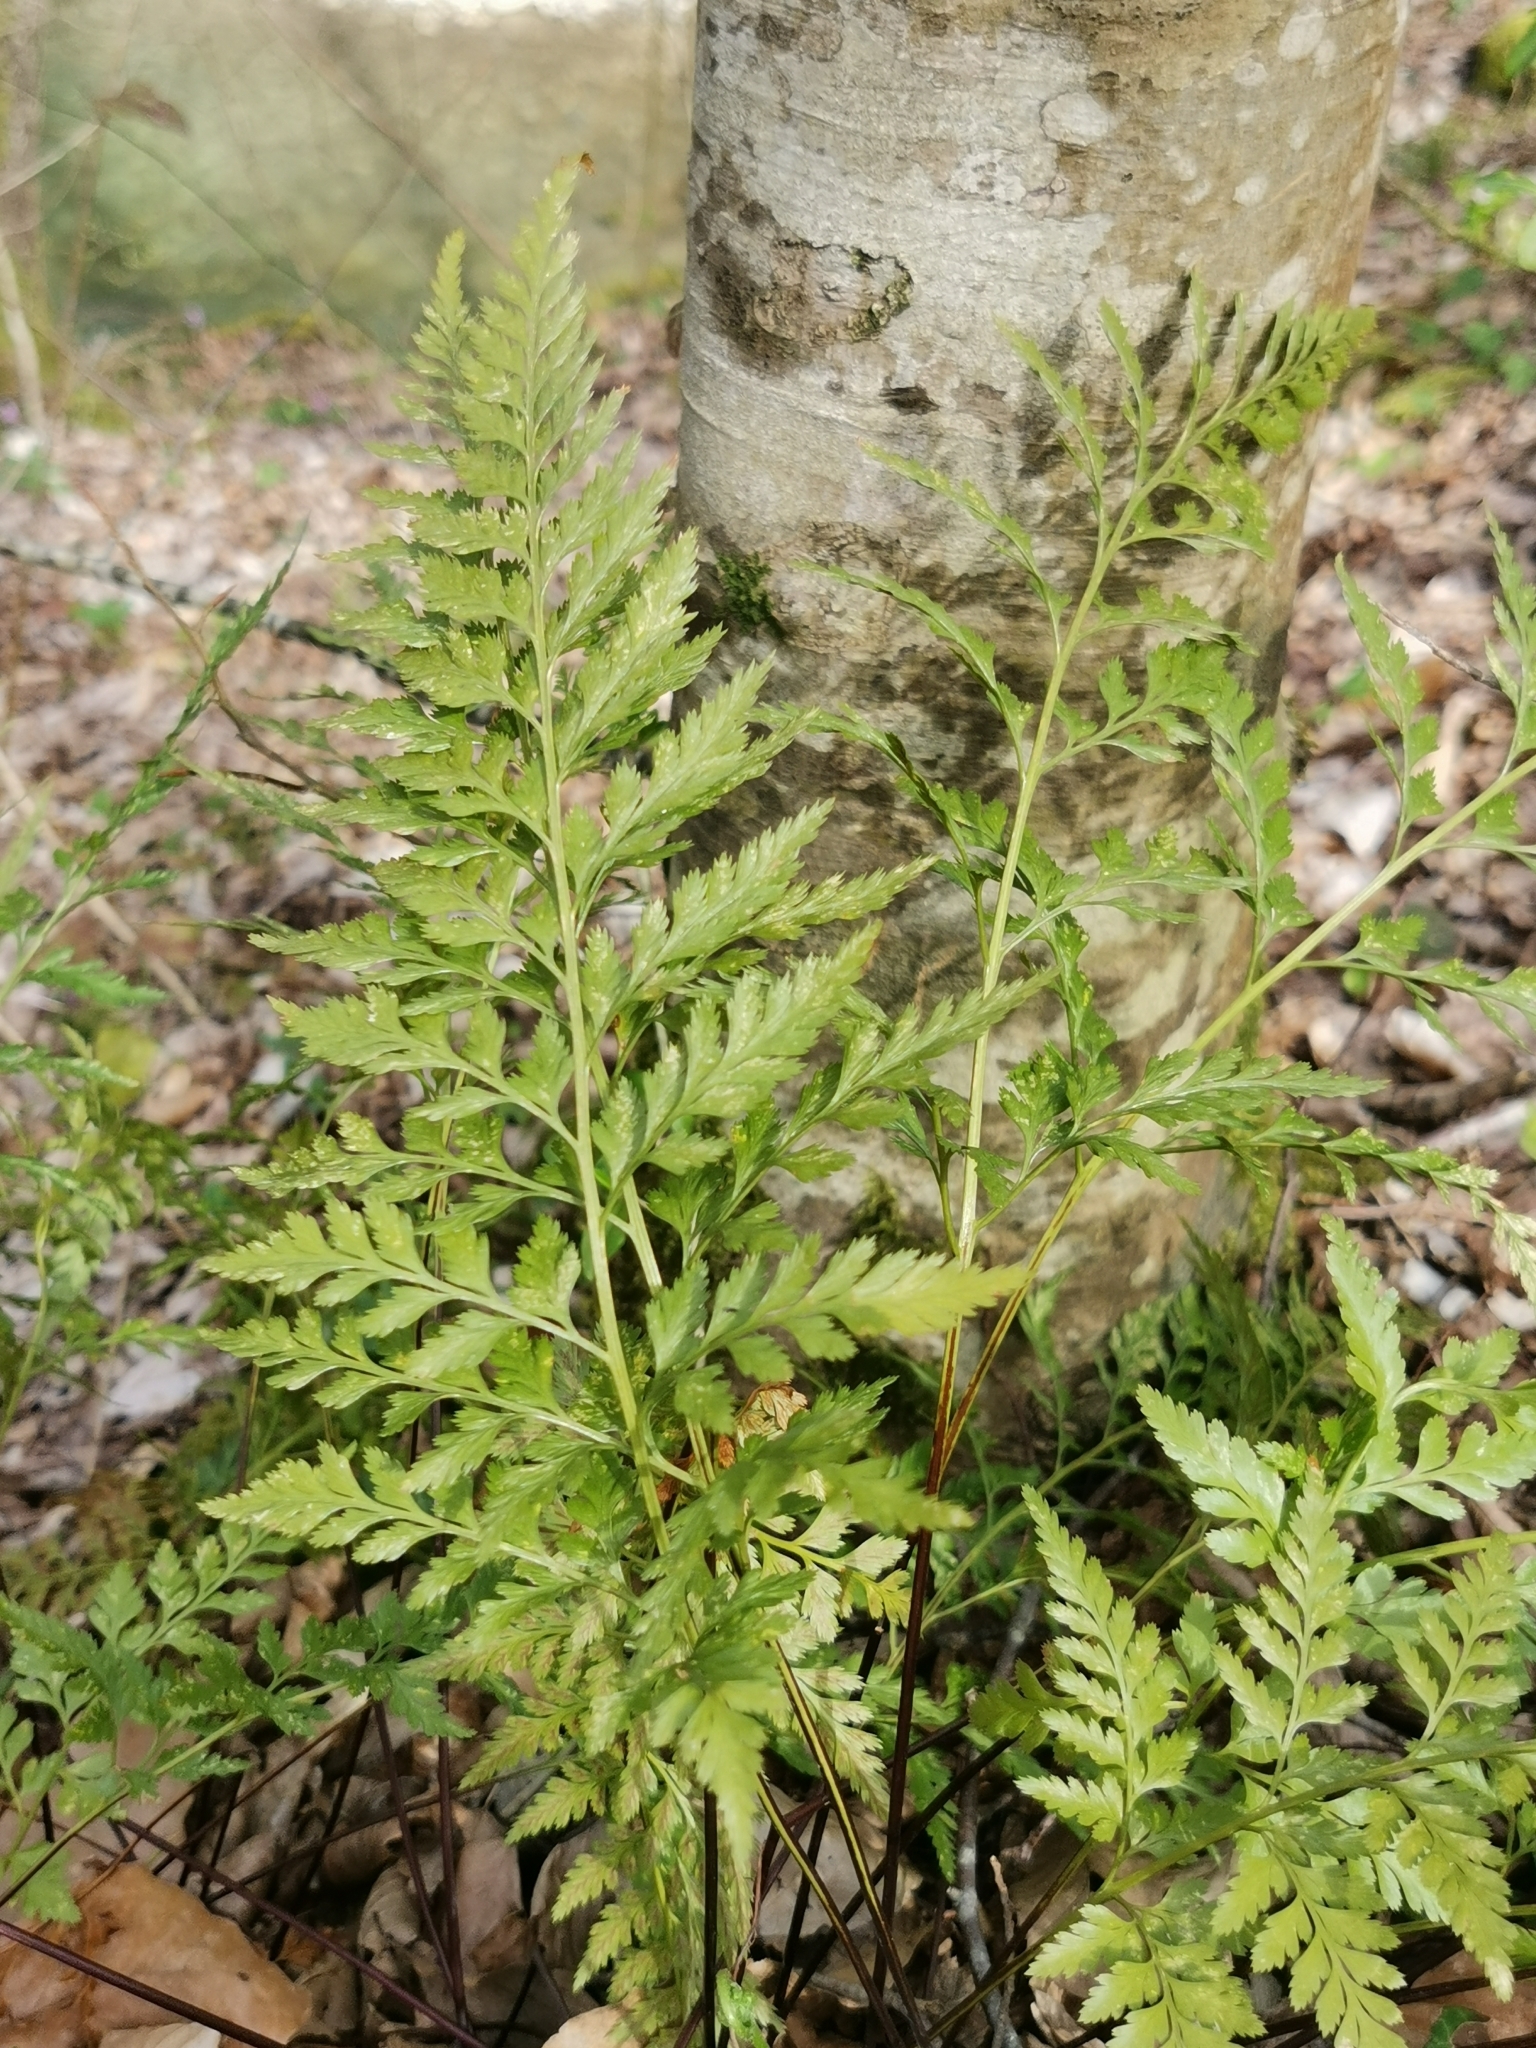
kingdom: Plantae
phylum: Tracheophyta
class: Polypodiopsida
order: Polypodiales
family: Aspleniaceae
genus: Asplenium
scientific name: Asplenium adiantum-nigrum
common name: Black spleenwort
